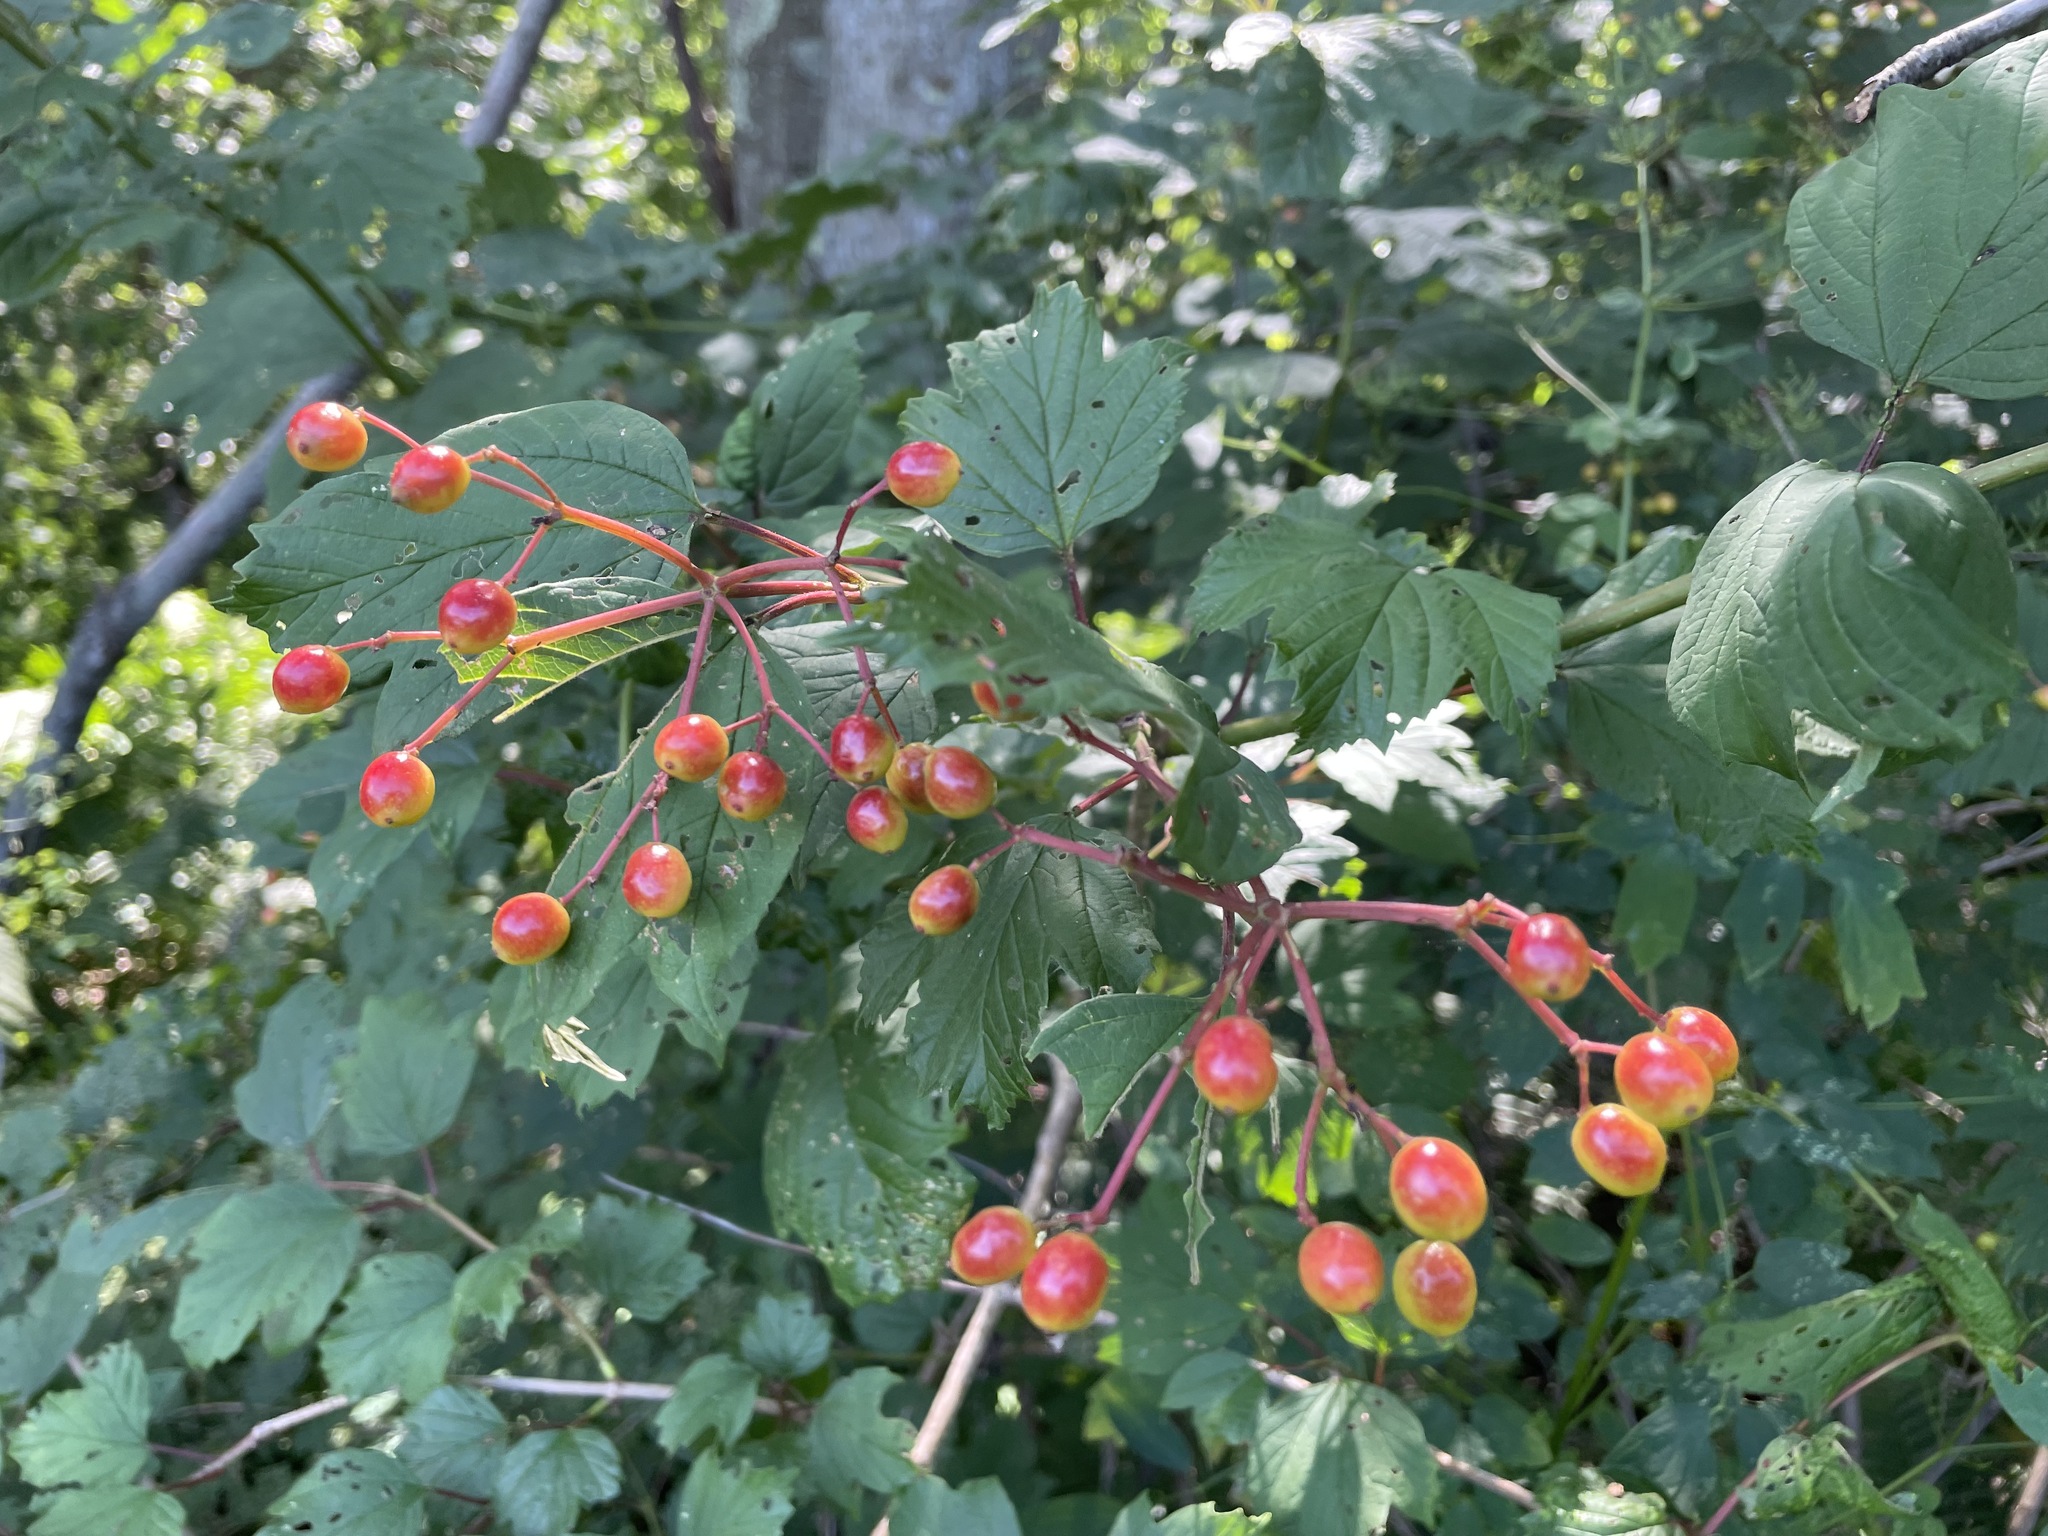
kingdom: Plantae
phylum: Tracheophyta
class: Magnoliopsida
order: Dipsacales
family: Viburnaceae
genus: Viburnum
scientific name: Viburnum opulus
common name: Guelder-rose
